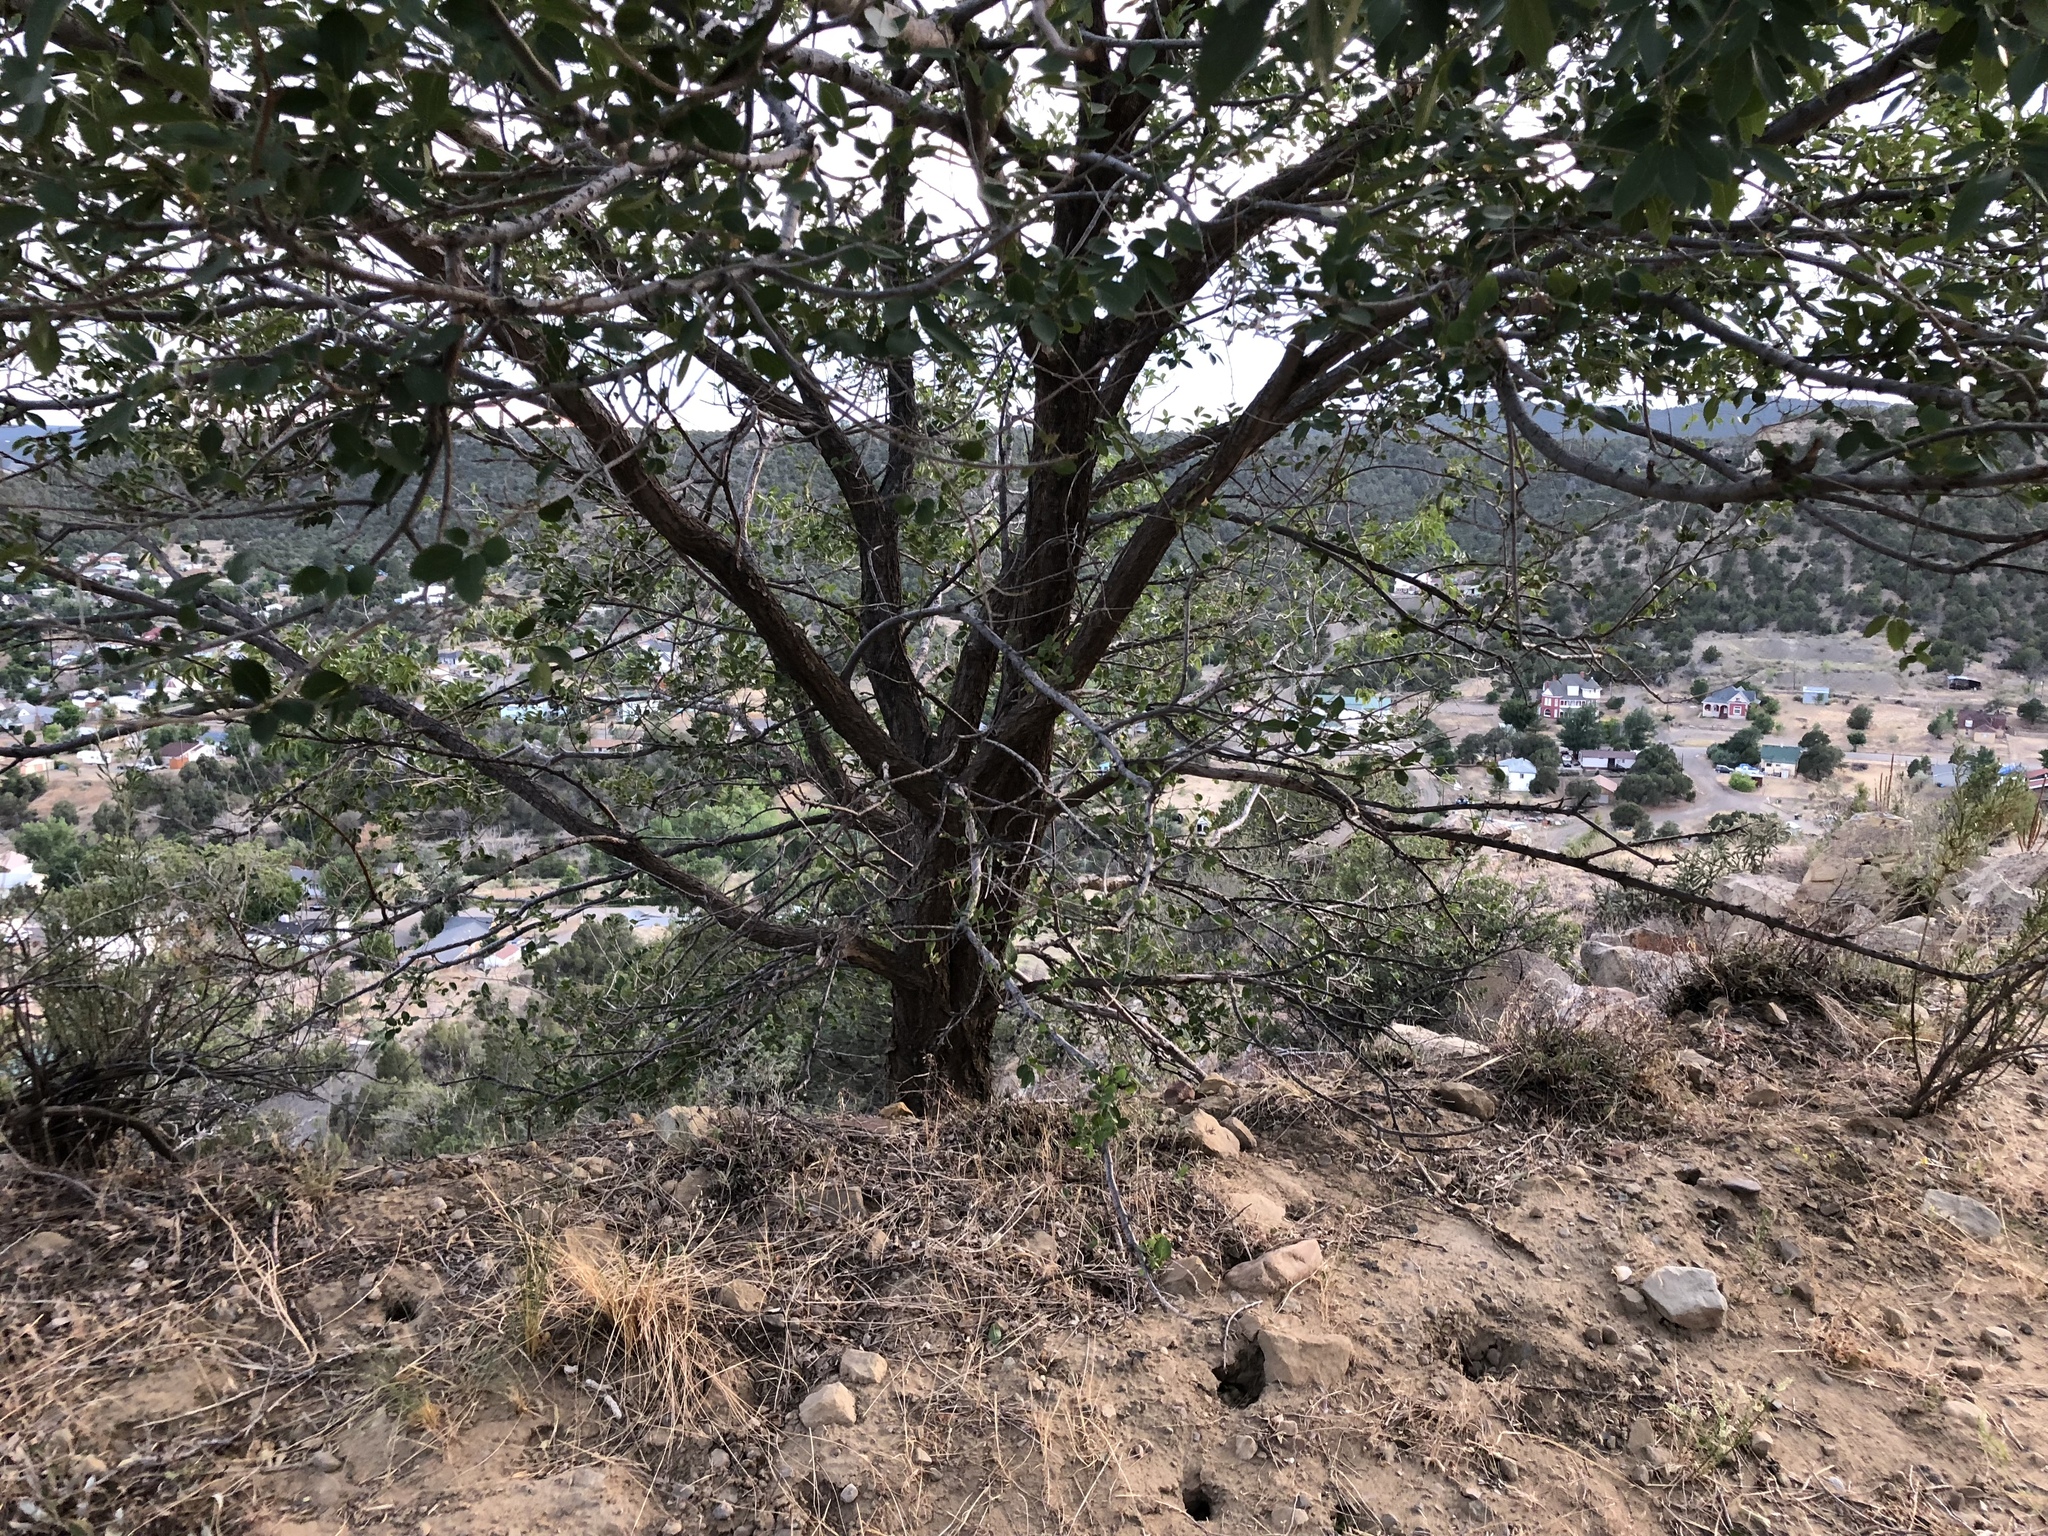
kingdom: Plantae
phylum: Tracheophyta
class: Magnoliopsida
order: Rosales
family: Ulmaceae
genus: Ulmus
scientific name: Ulmus pumila
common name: Siberian elm
